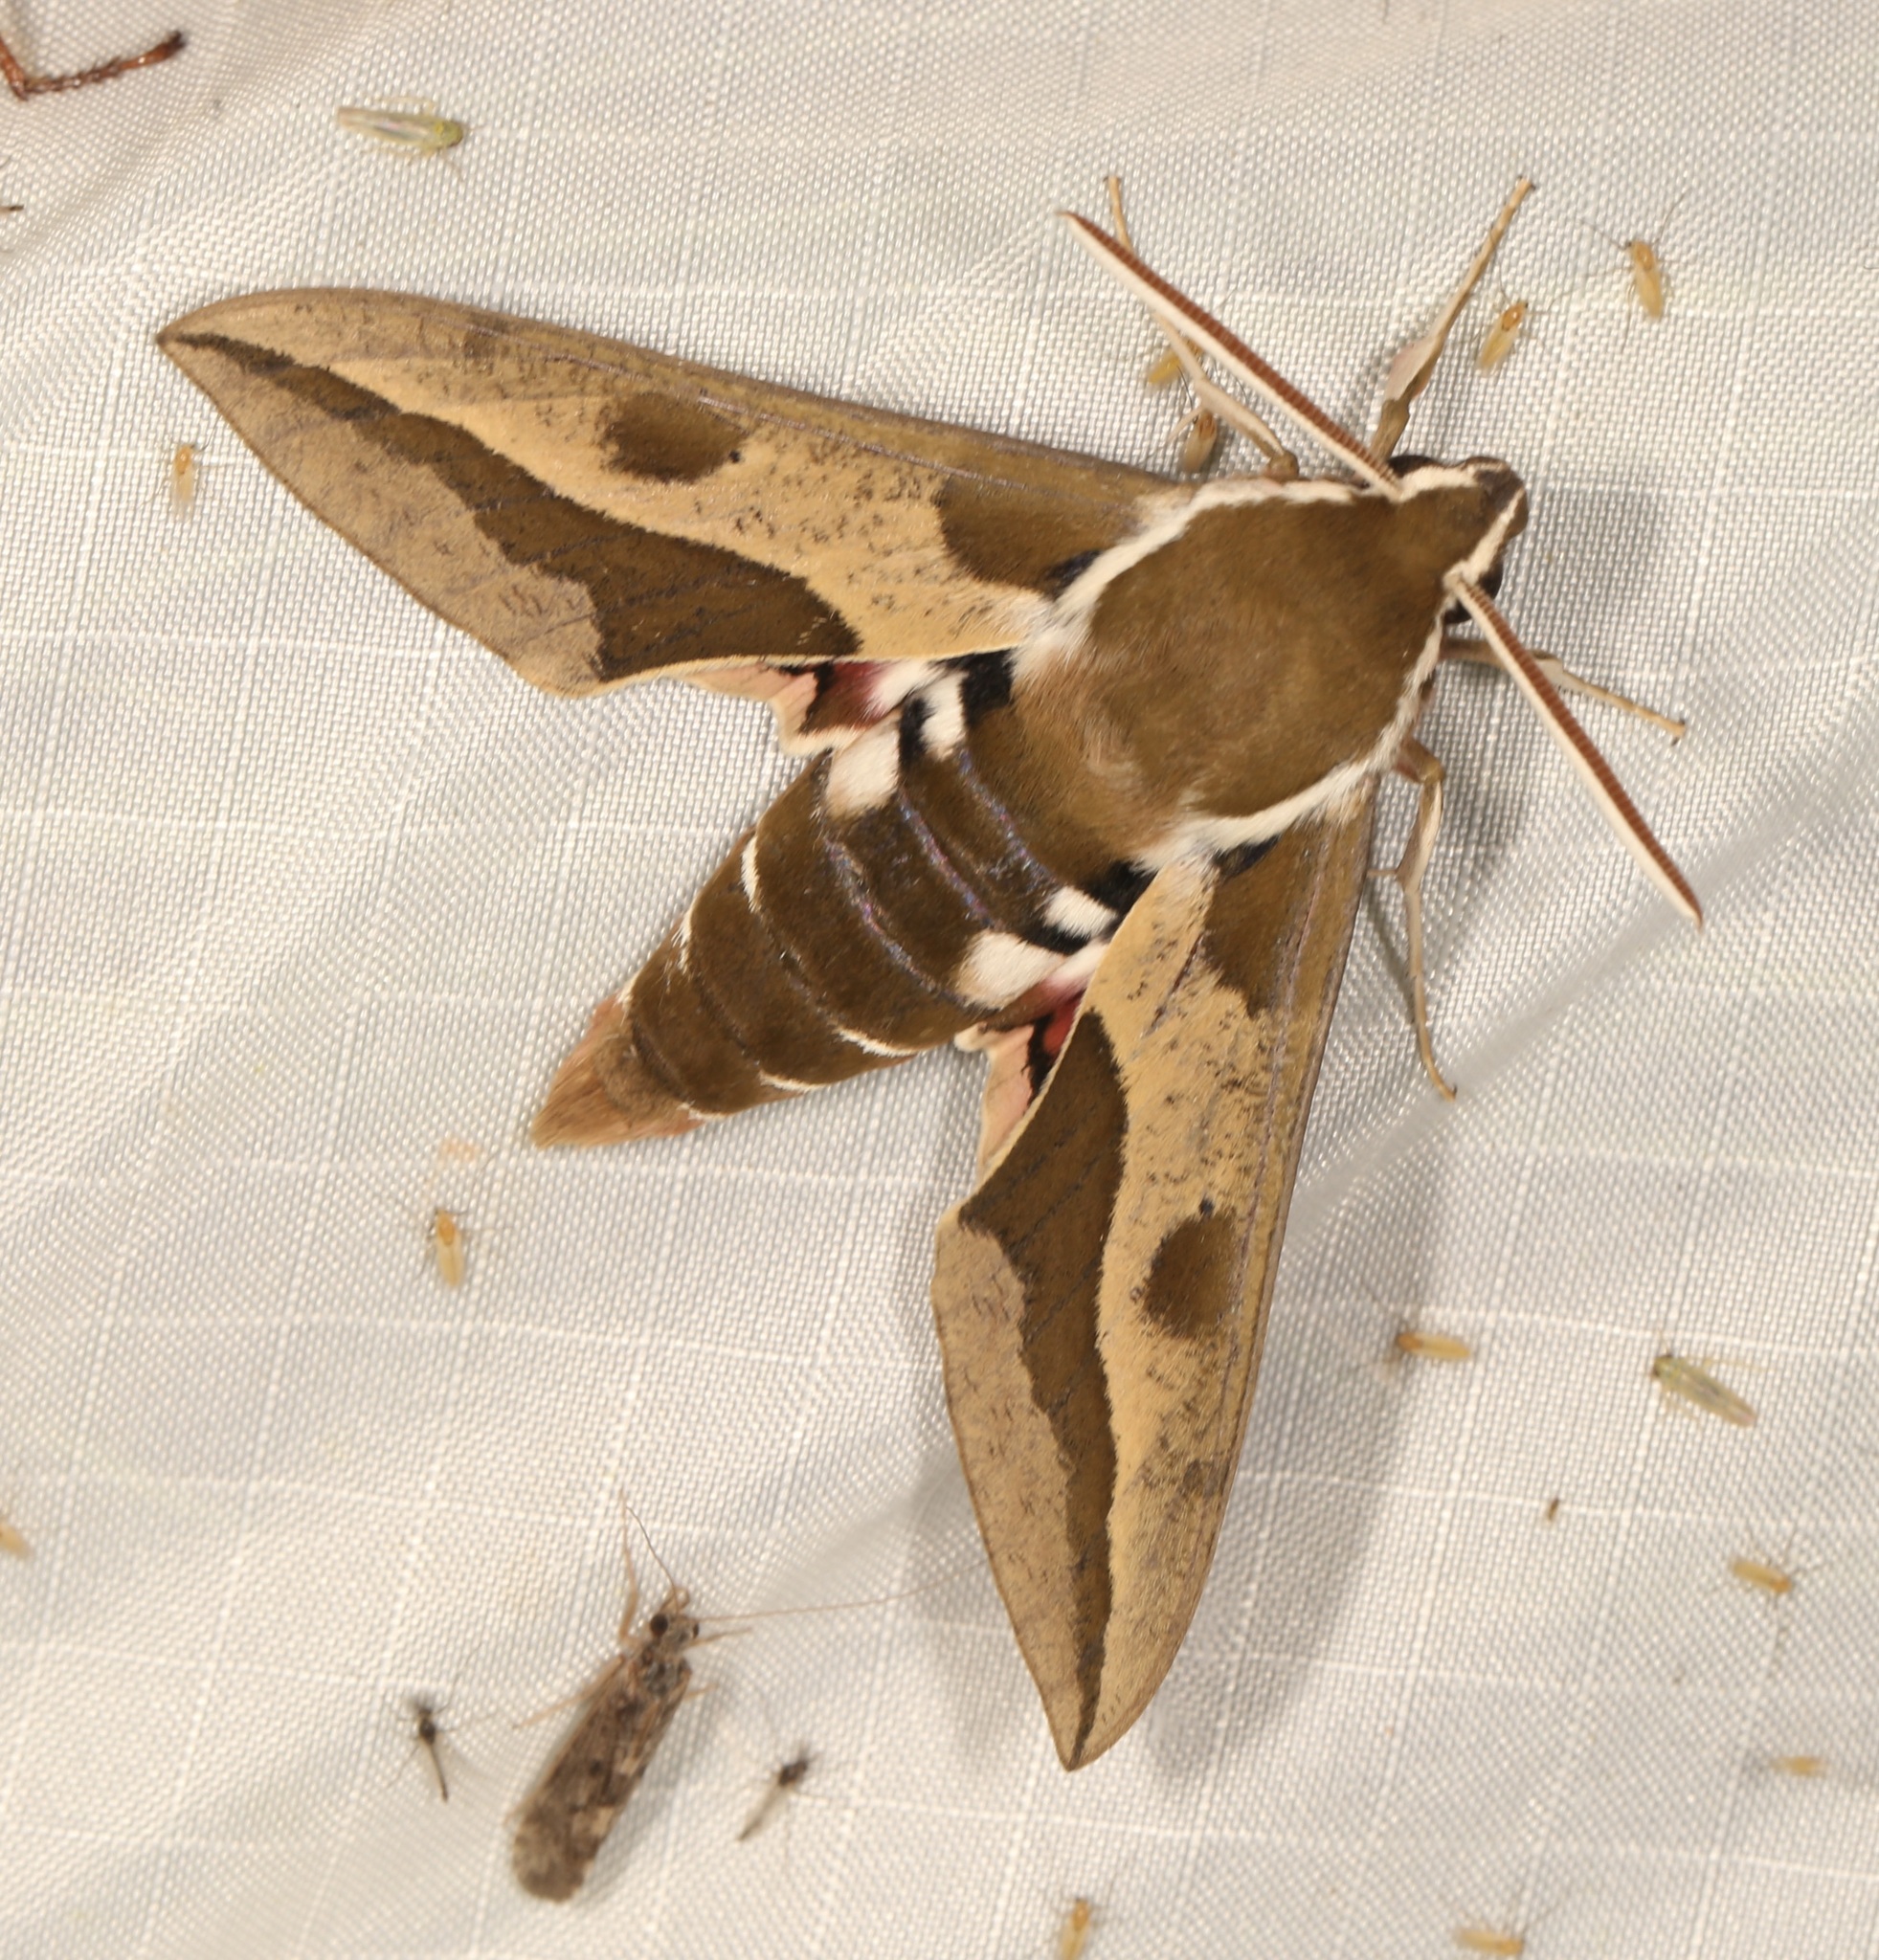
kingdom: Animalia
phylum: Arthropoda
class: Insecta
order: Lepidoptera
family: Sphingidae
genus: Hyles
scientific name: Hyles euphorbiae
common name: Spurge hawk-moth
